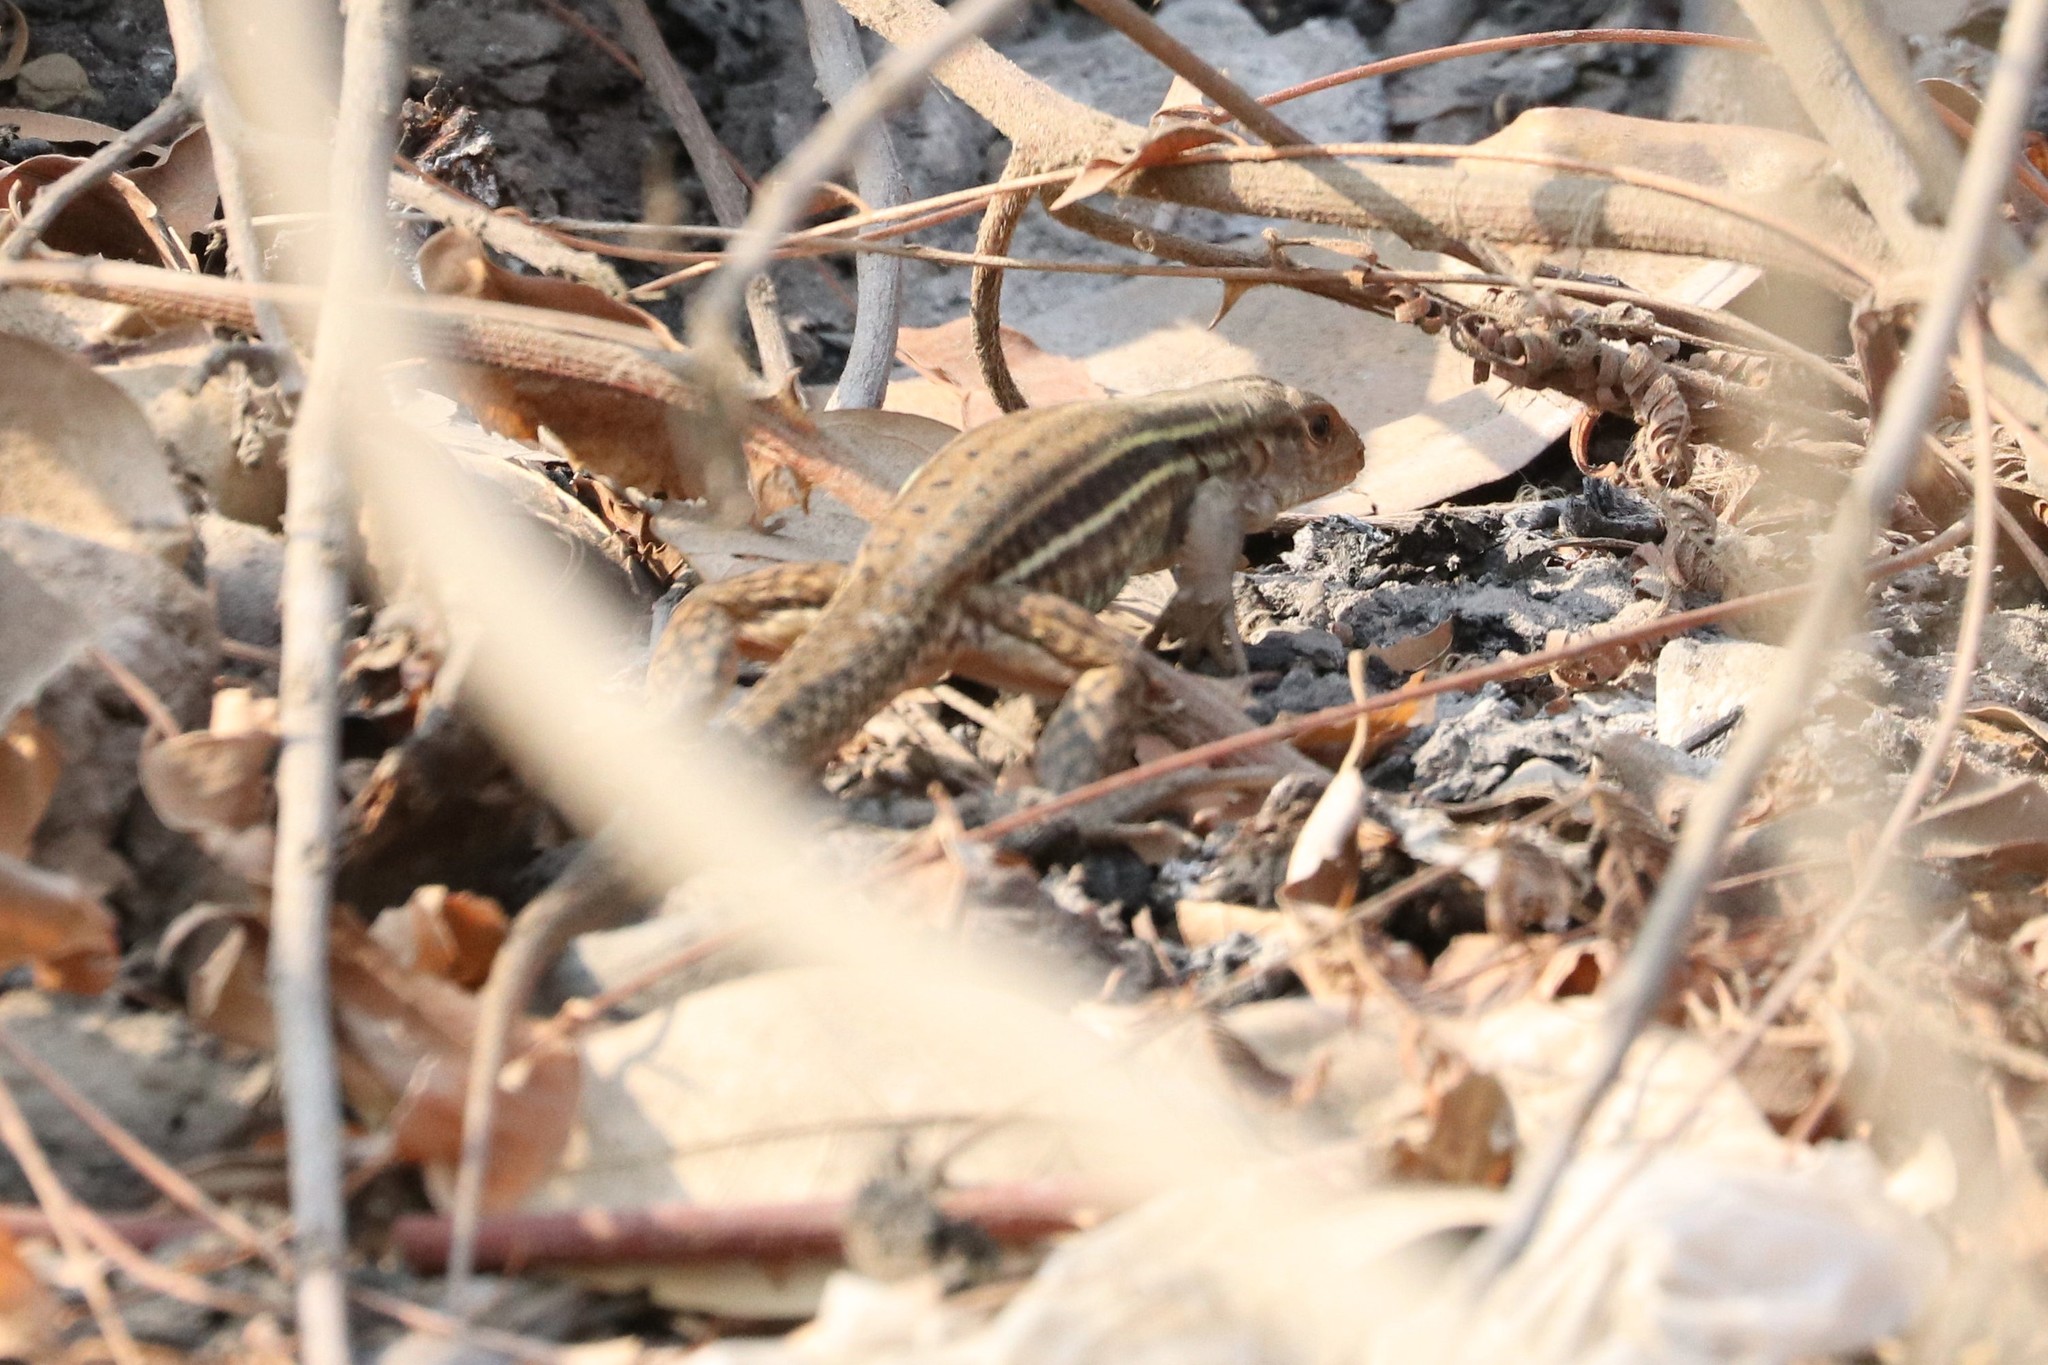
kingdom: Animalia
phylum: Chordata
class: Squamata
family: Teiidae
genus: Ameiva
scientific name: Ameiva bifrontata
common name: Cope's ameiva
